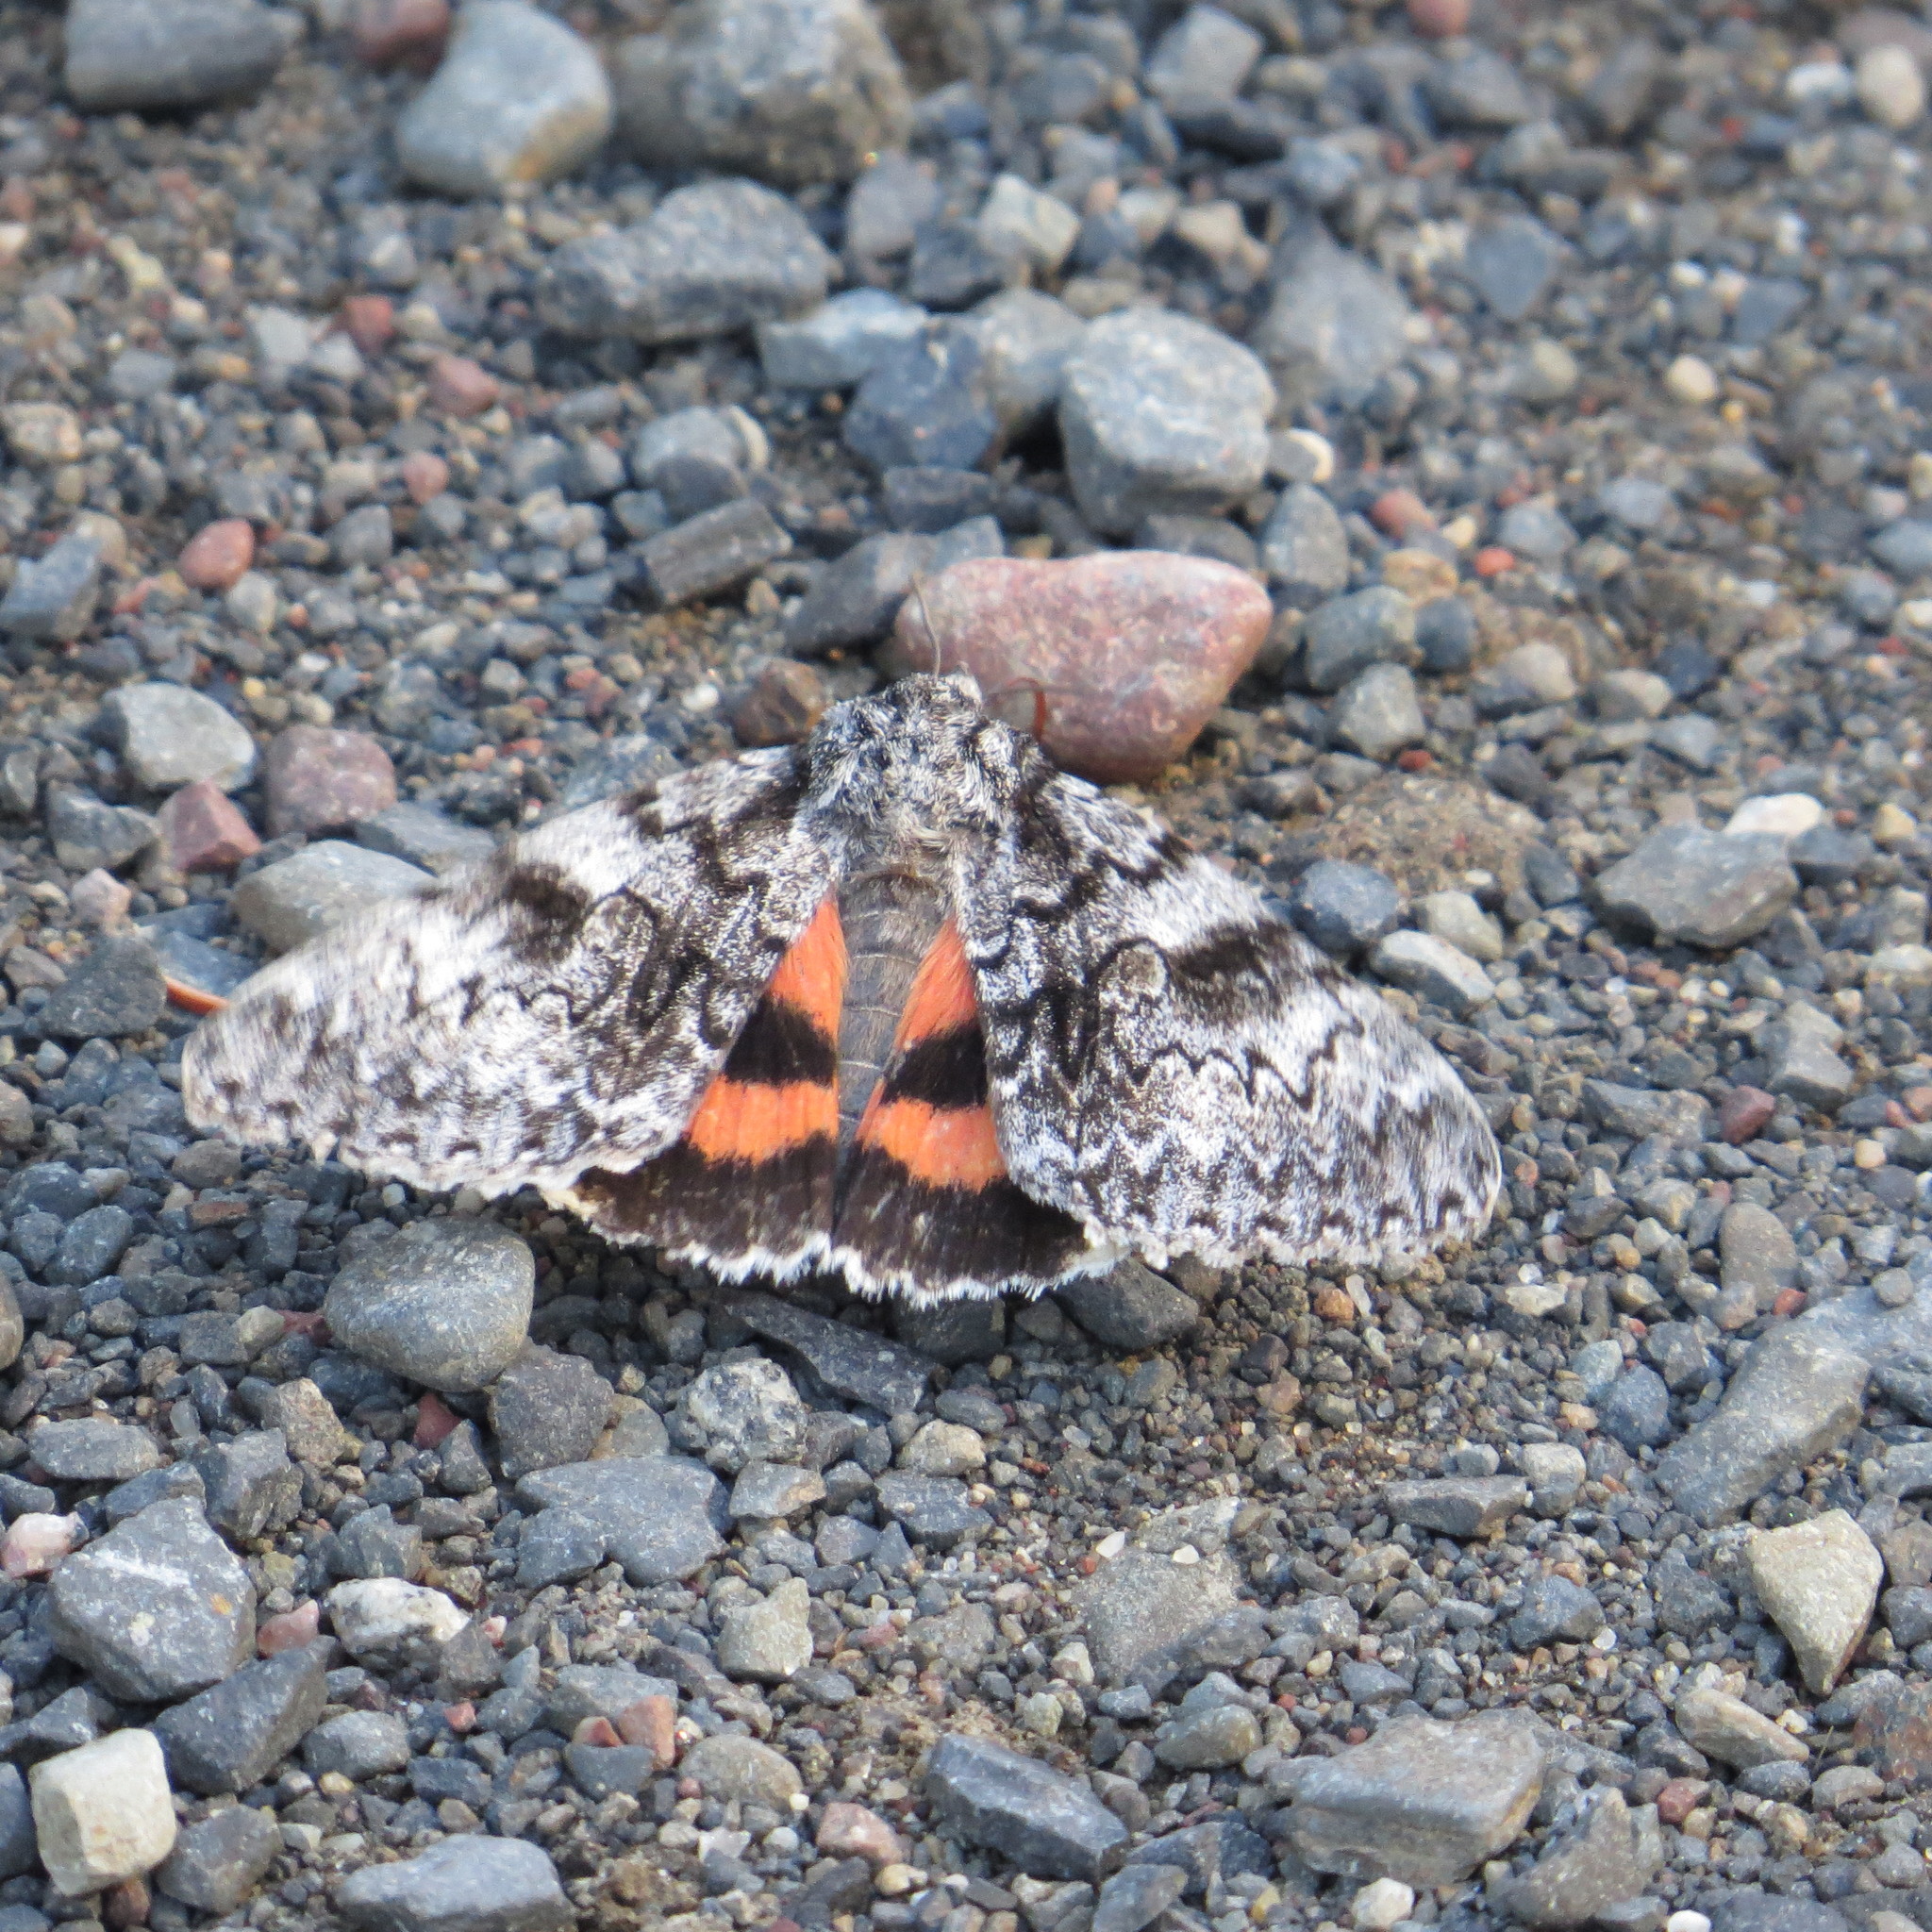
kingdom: Animalia
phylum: Arthropoda
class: Insecta
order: Lepidoptera
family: Erebidae
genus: Catocala
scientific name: Catocala semirelicta
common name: Semirelict underwing moth
